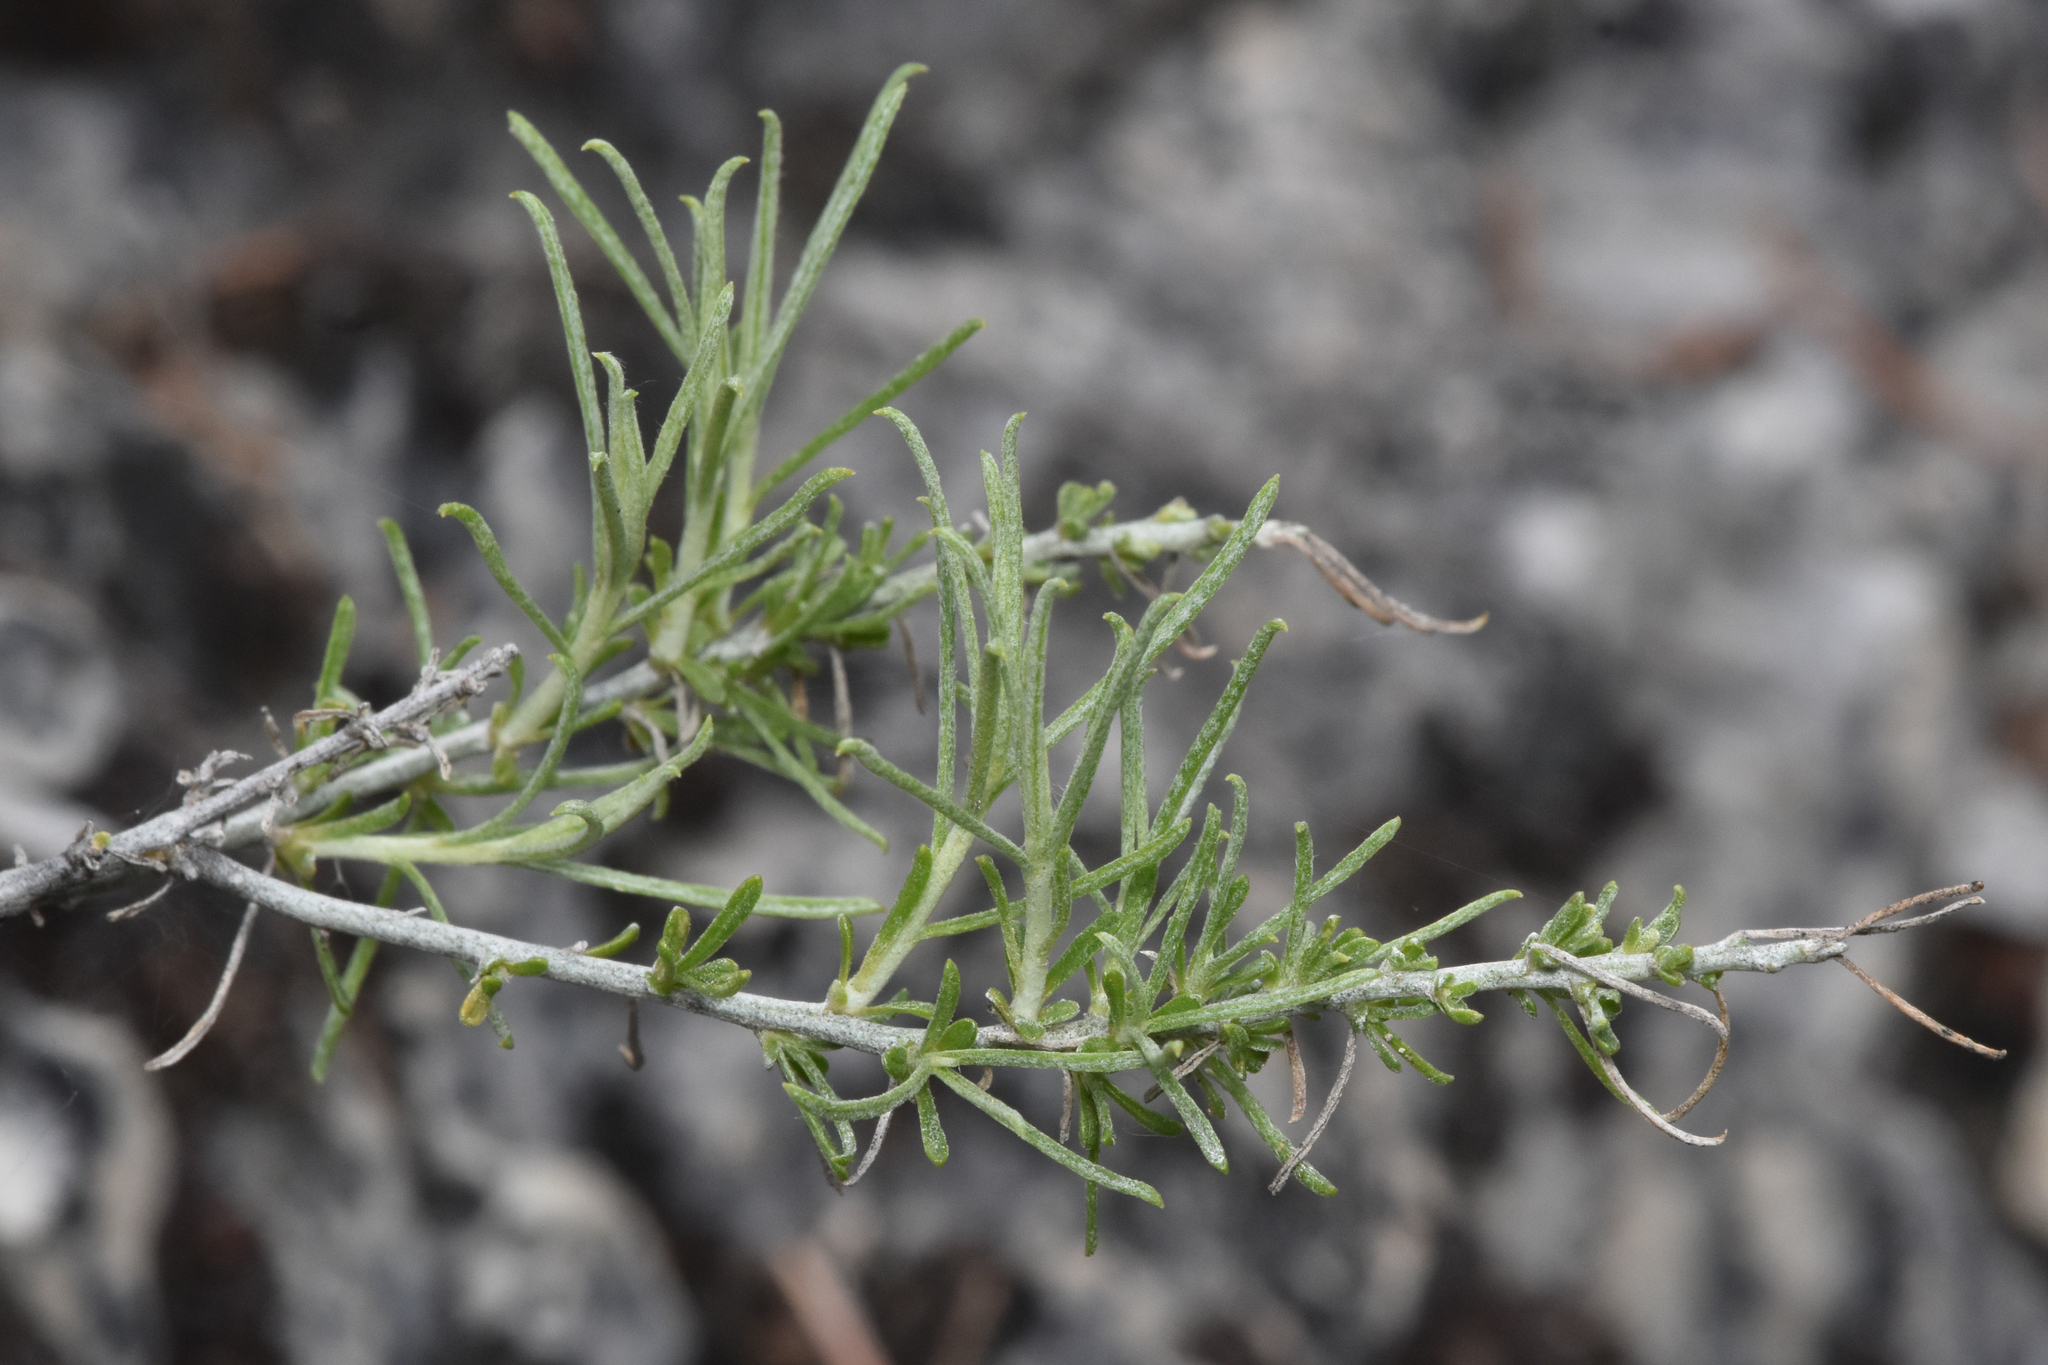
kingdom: Plantae
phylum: Tracheophyta
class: Magnoliopsida
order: Asterales
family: Asteraceae
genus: Ericameria
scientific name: Ericameria nauseosa
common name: Rubber rabbitbrush
